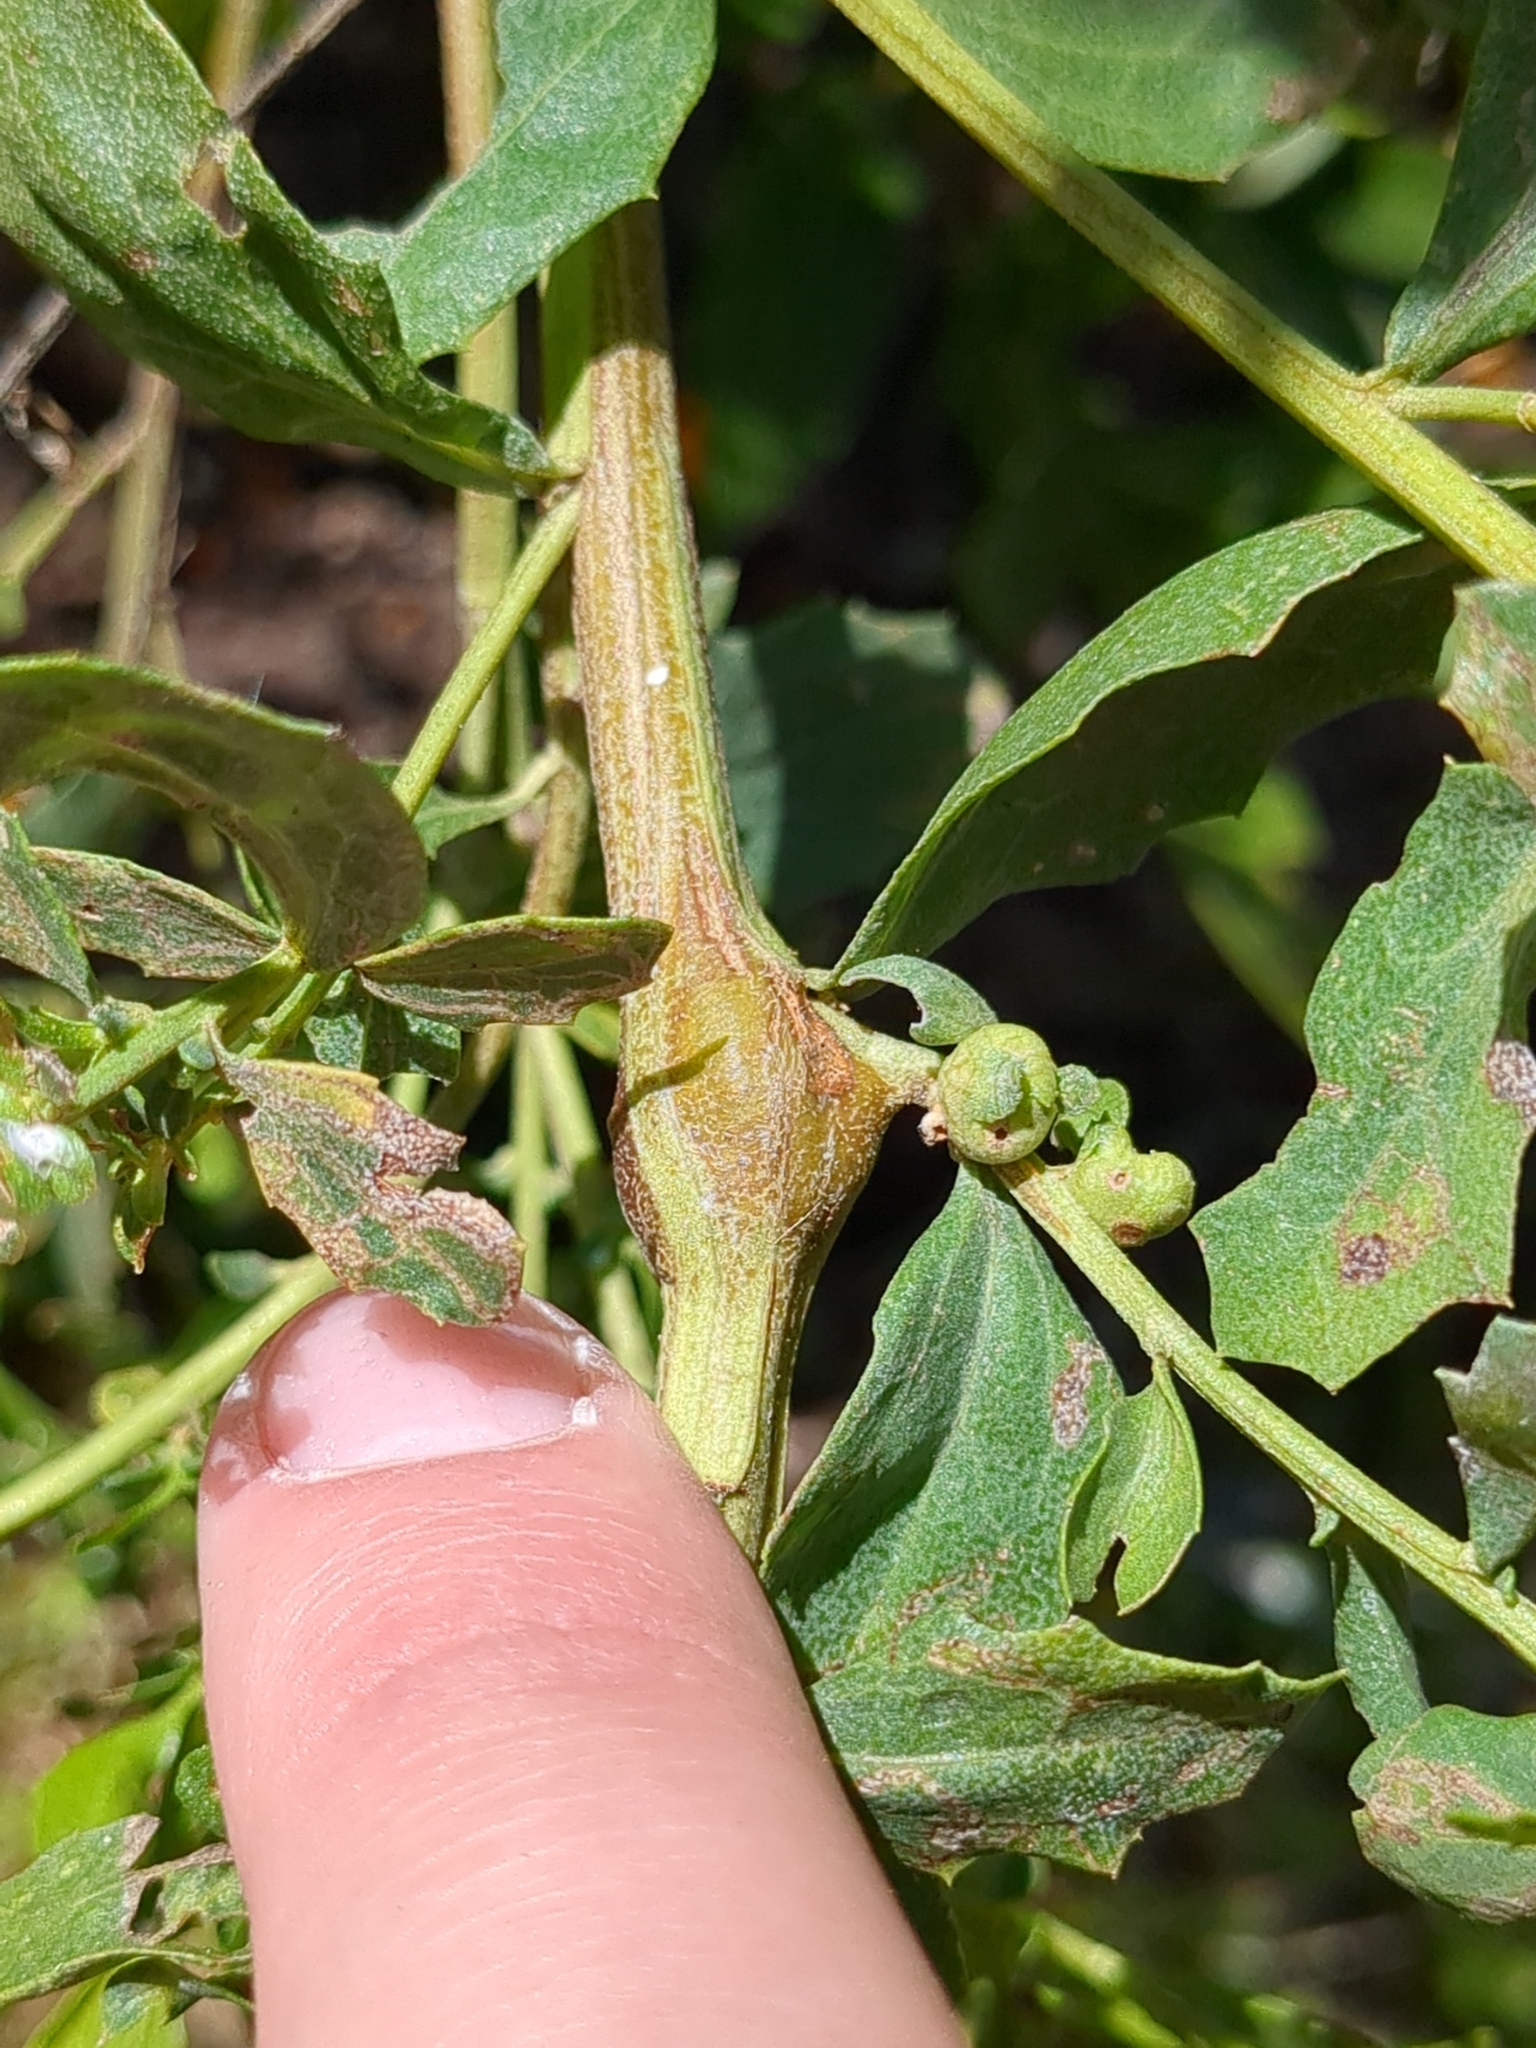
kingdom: Animalia
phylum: Arthropoda
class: Insecta
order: Lepidoptera
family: Gelechiidae
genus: Gnorimoschema
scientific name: Gnorimoschema baccharisella
